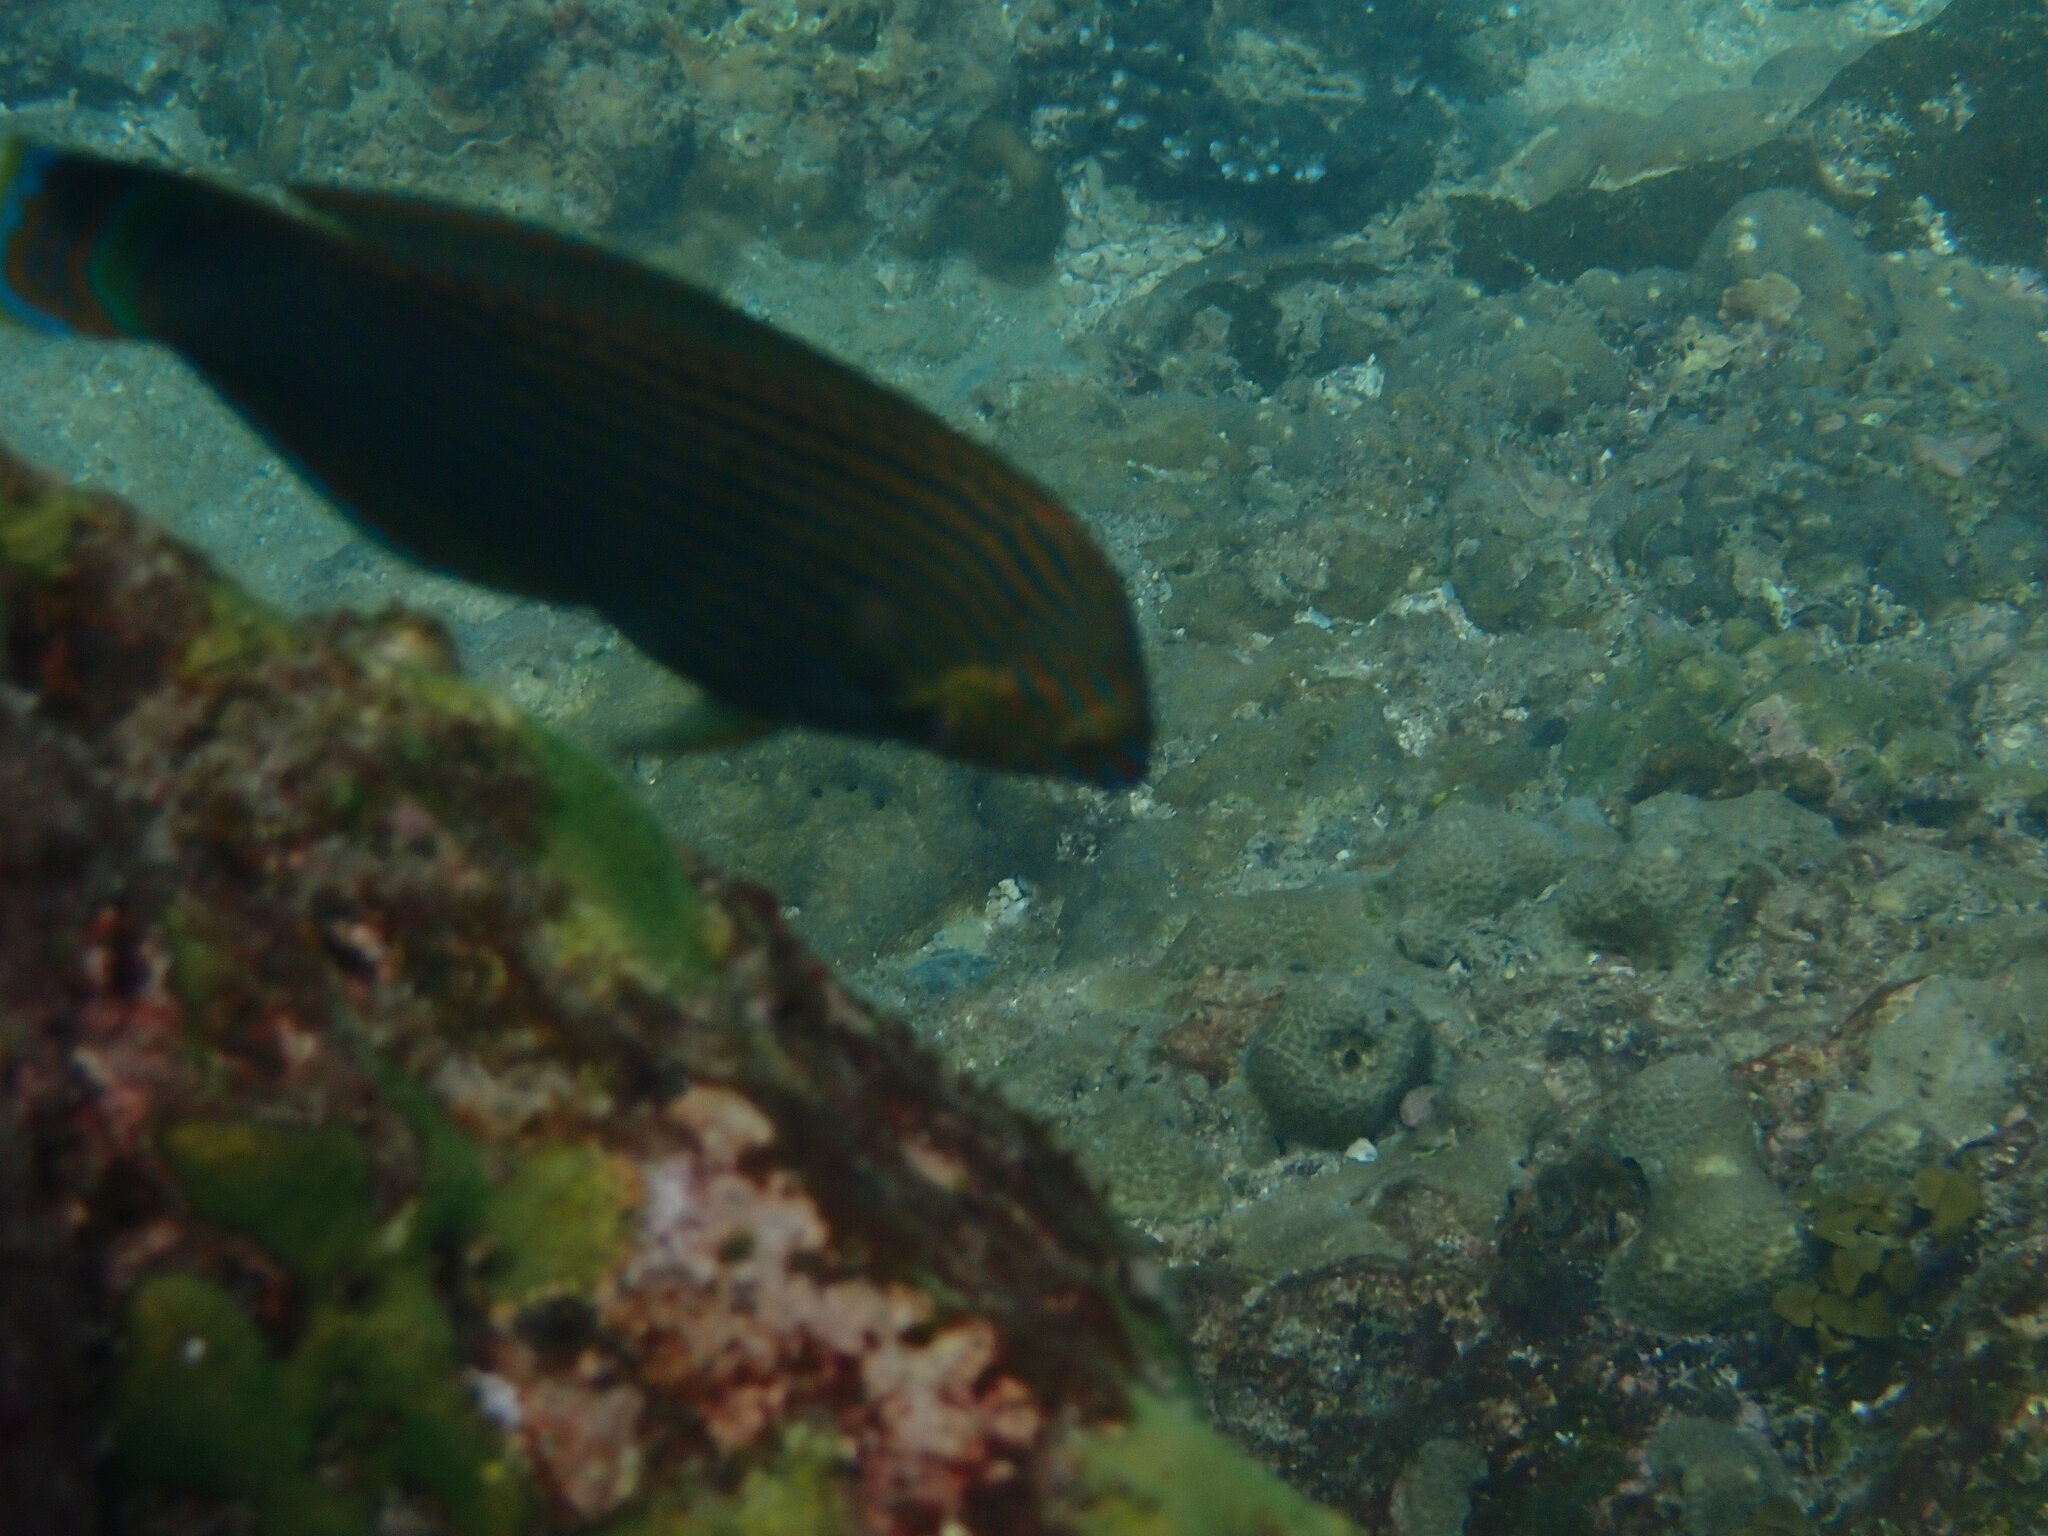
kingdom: Animalia
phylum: Chordata
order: Perciformes
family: Labridae
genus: Halichoeres
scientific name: Halichoeres
